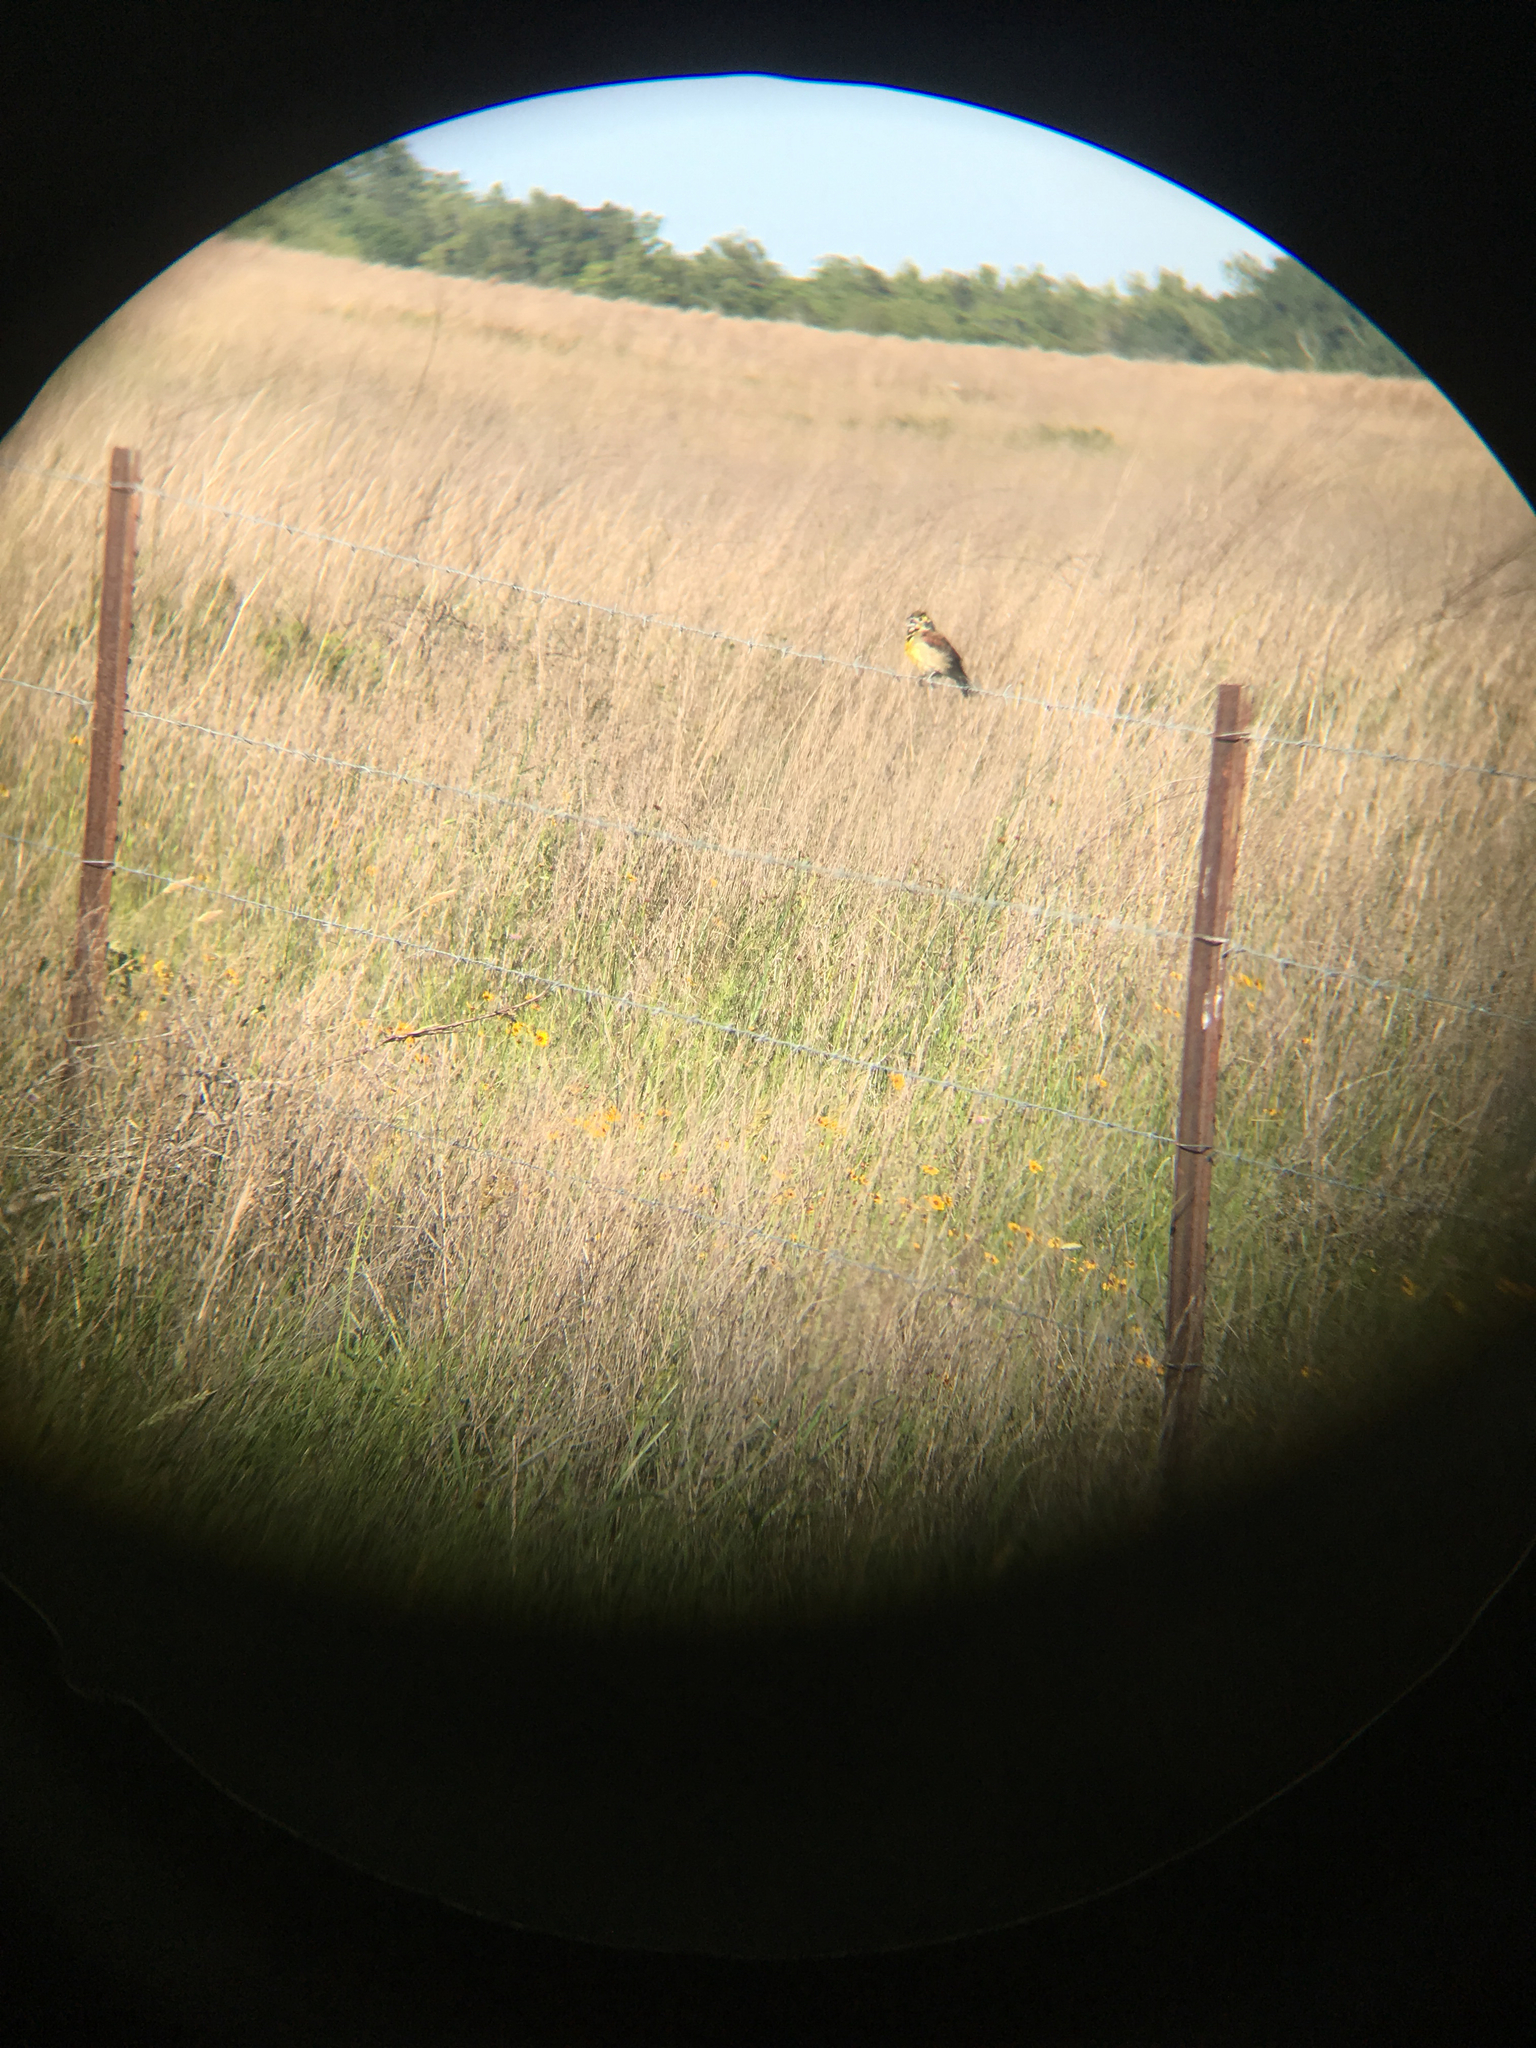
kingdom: Animalia
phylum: Chordata
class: Aves
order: Passeriformes
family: Cardinalidae
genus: Spiza
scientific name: Spiza americana
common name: Dickcissel
